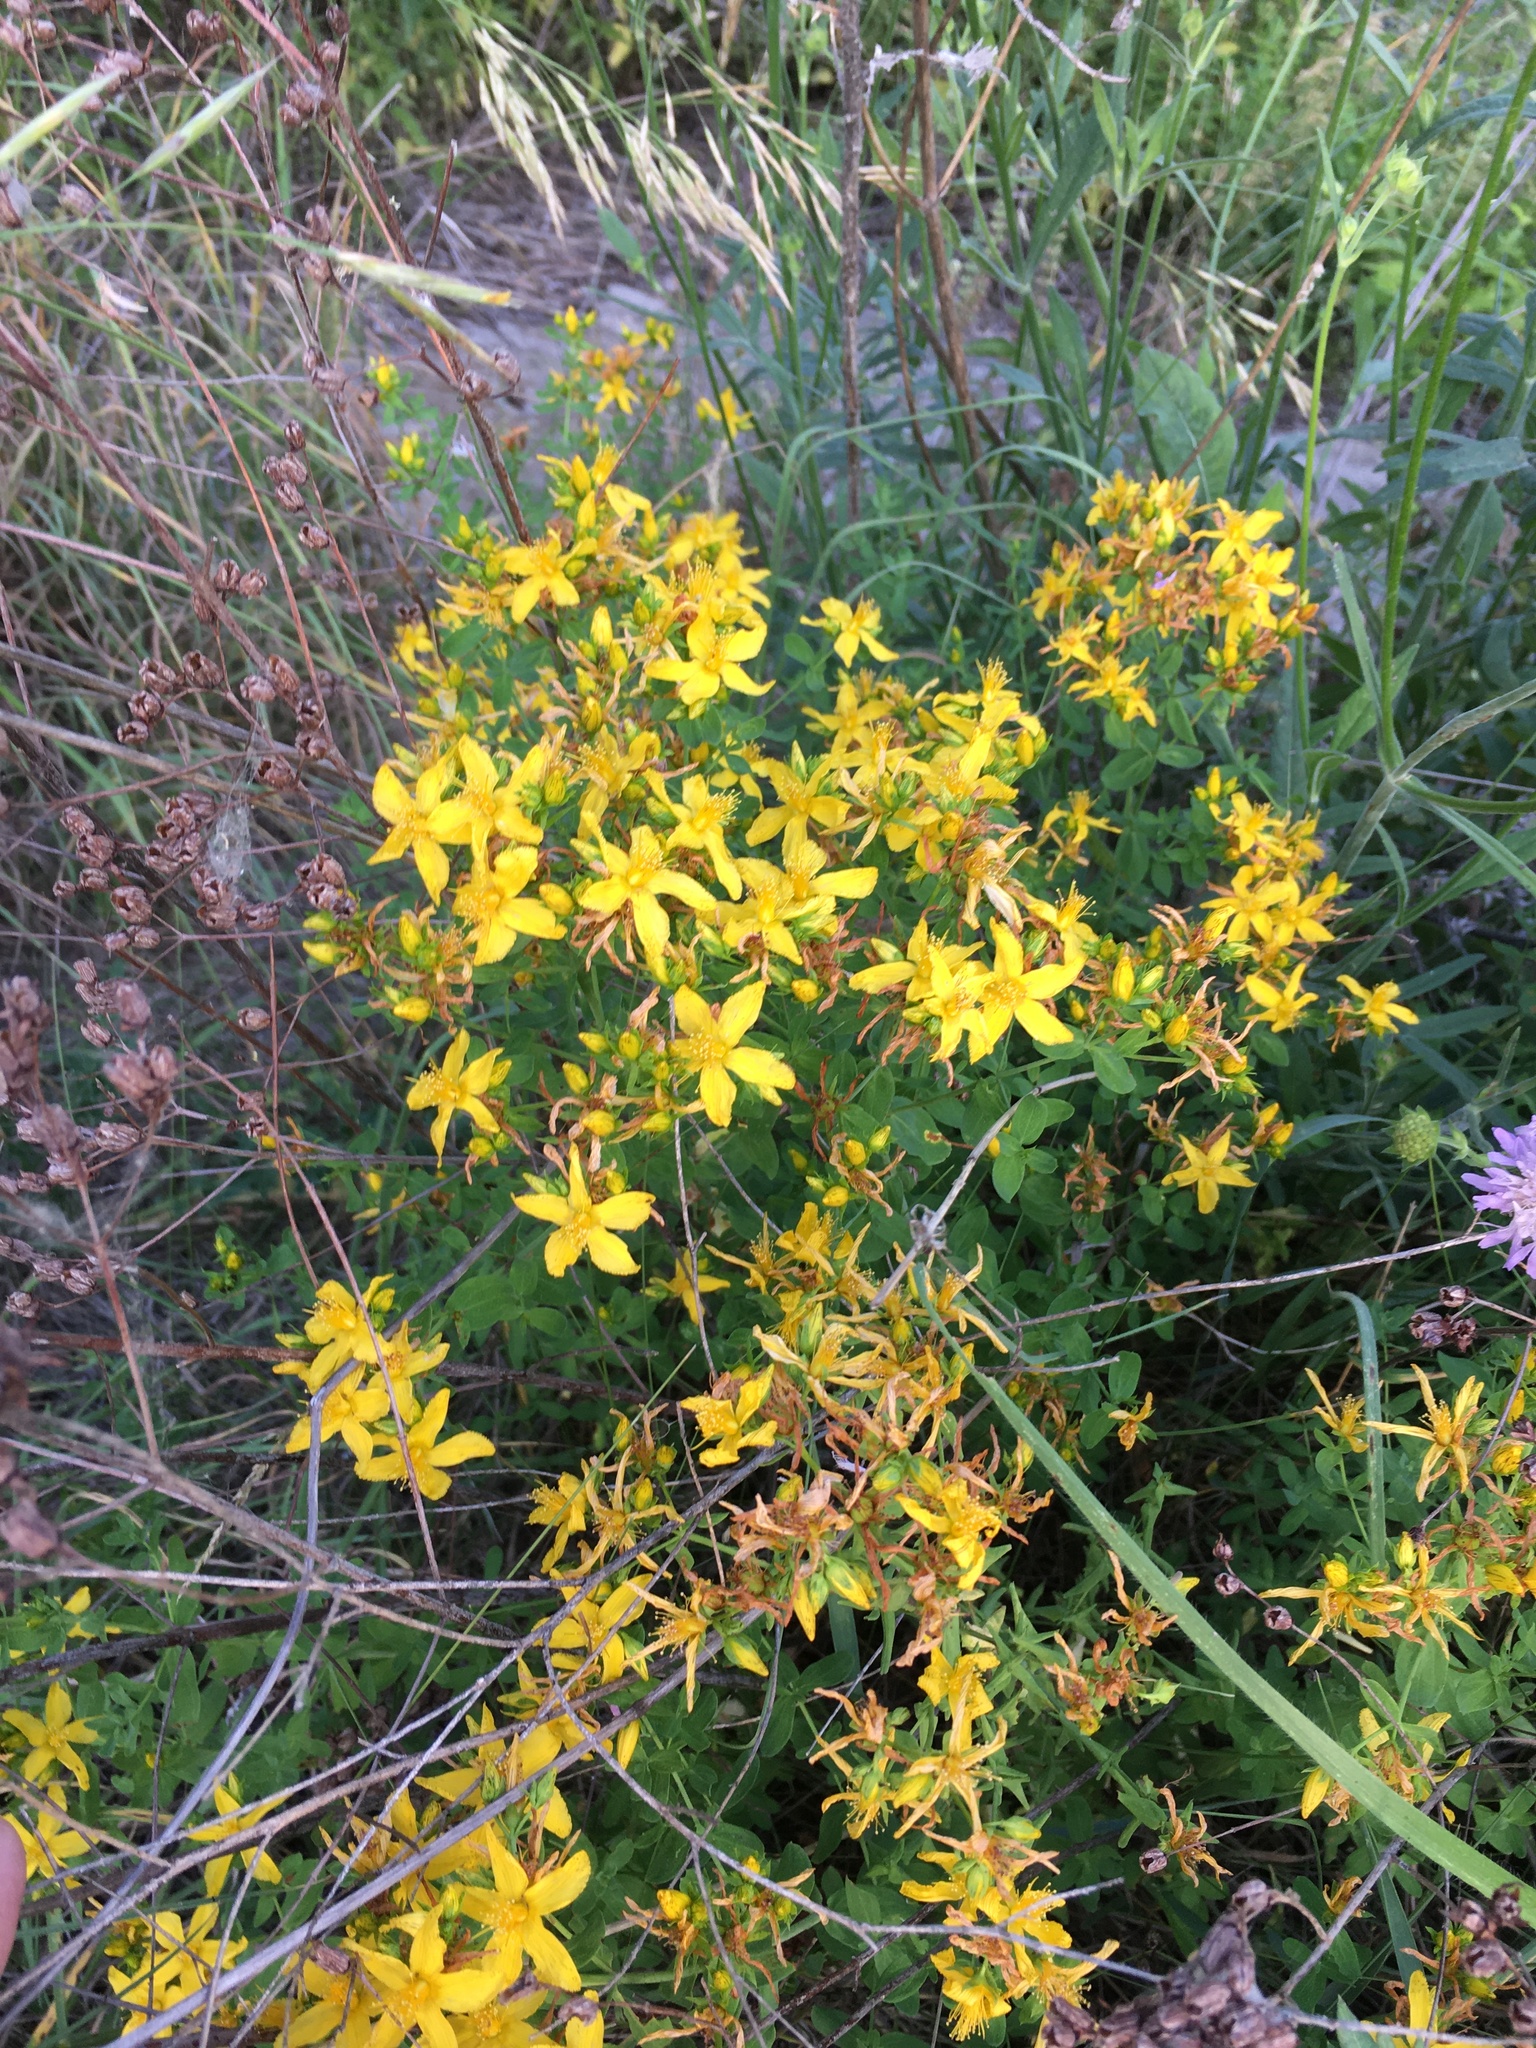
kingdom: Plantae
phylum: Tracheophyta
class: Magnoliopsida
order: Malpighiales
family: Hypericaceae
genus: Hypericum
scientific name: Hypericum perforatum
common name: Common st. johnswort
